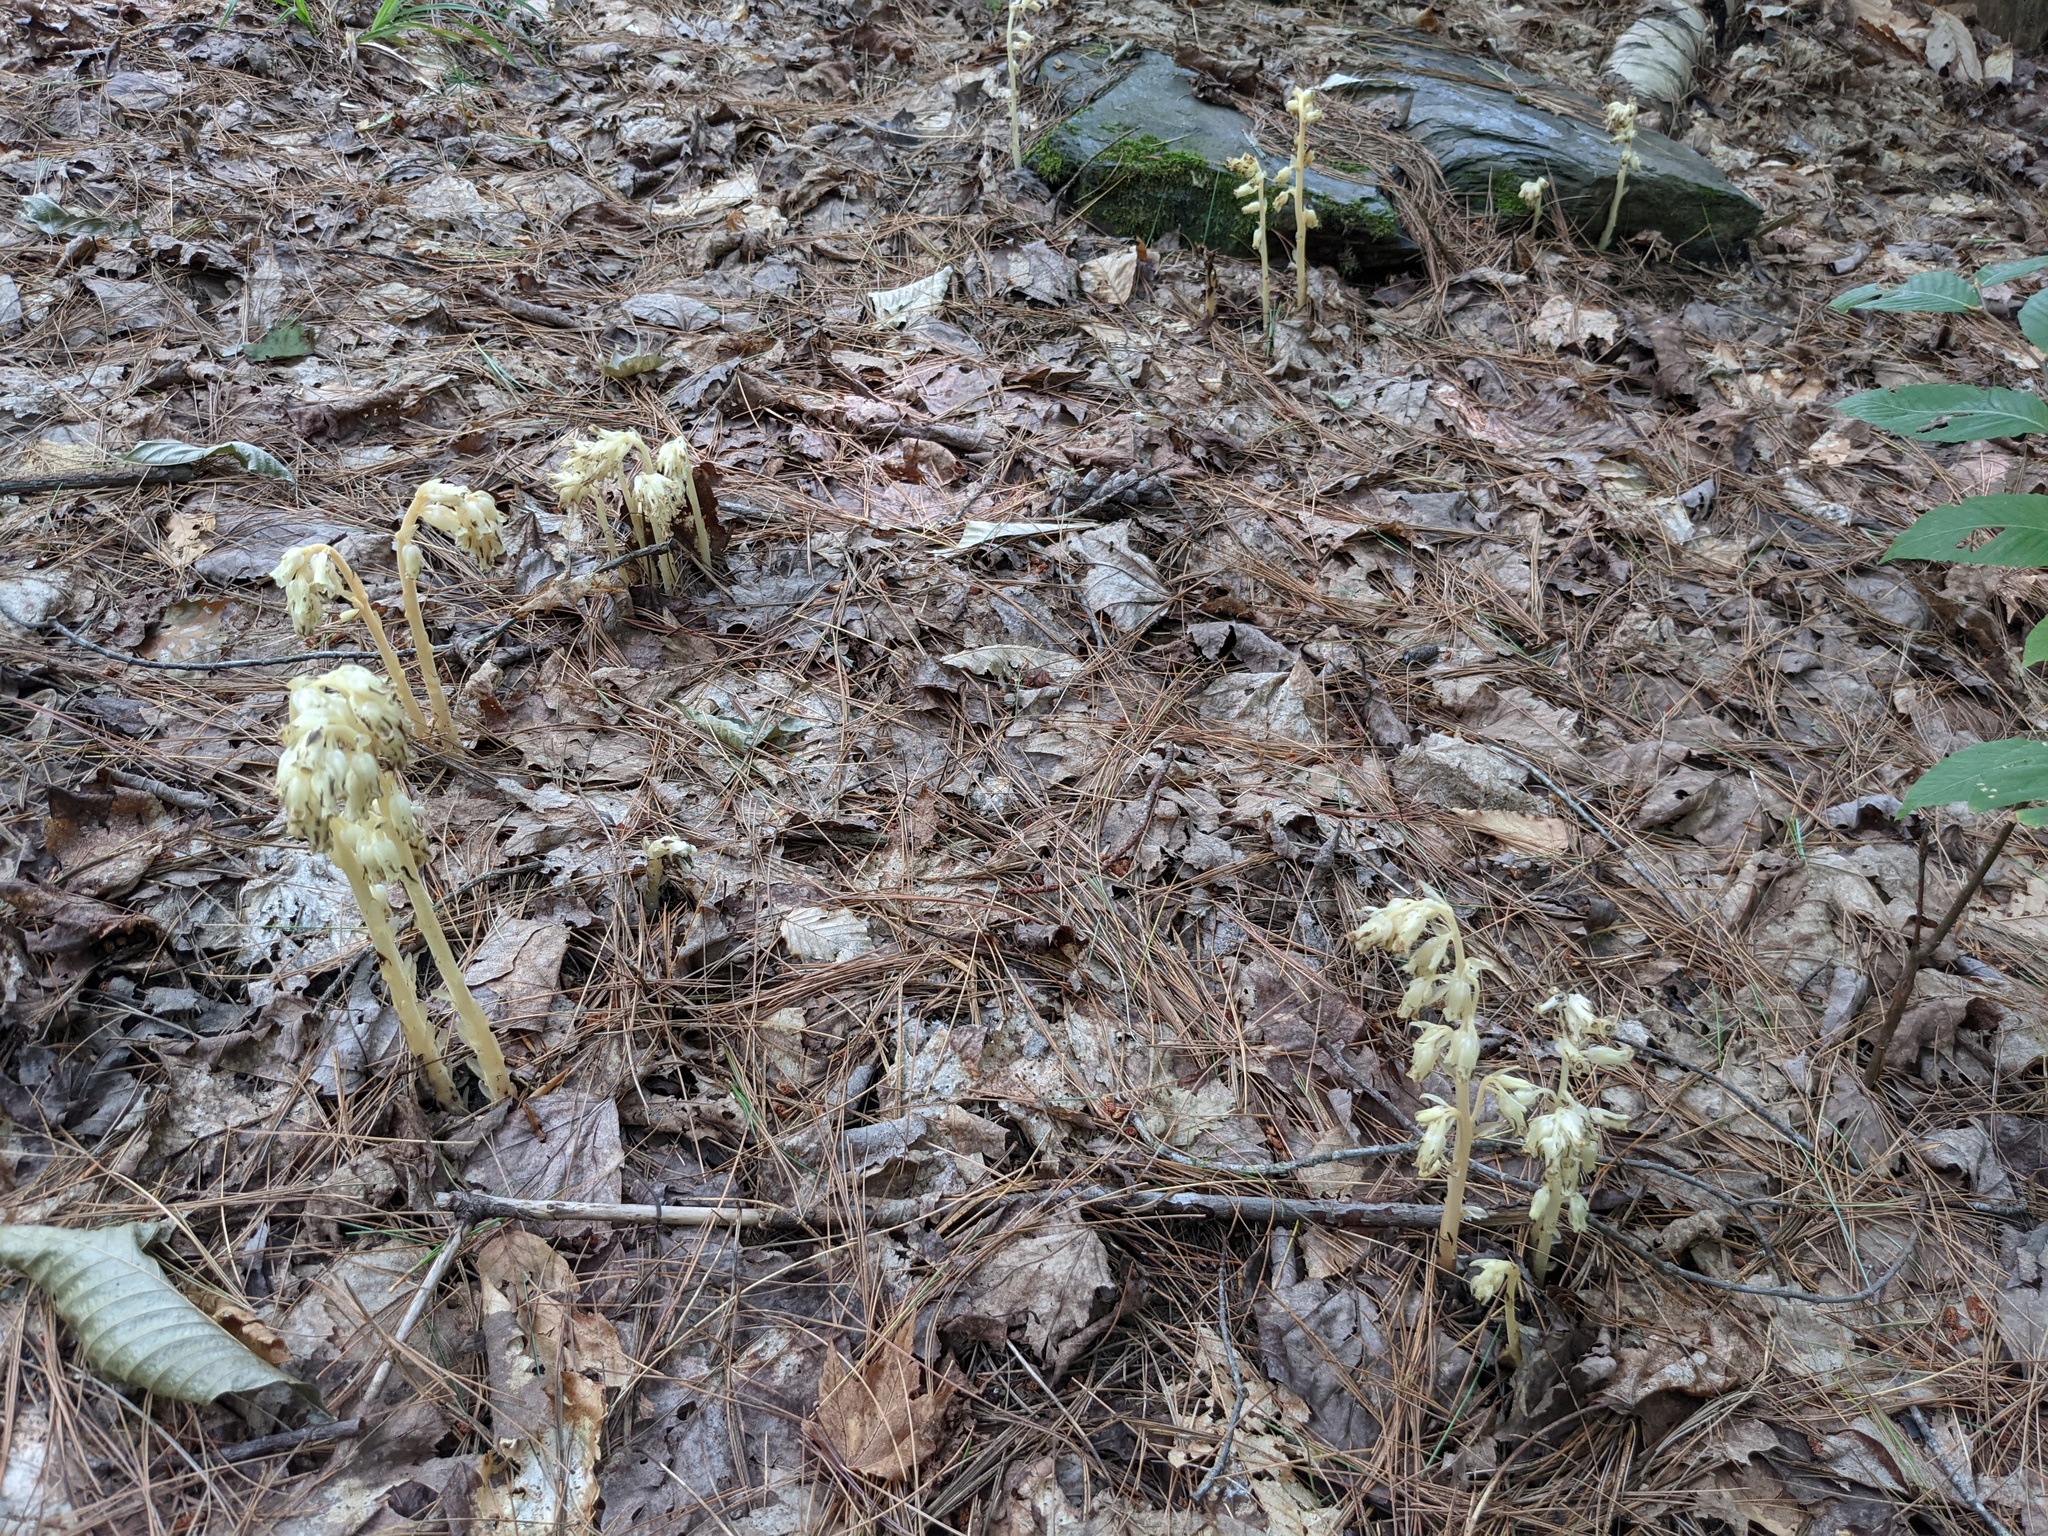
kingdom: Plantae
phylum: Tracheophyta
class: Magnoliopsida
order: Ericales
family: Ericaceae
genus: Hypopitys
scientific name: Hypopitys monotropa
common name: Yellow bird's-nest
